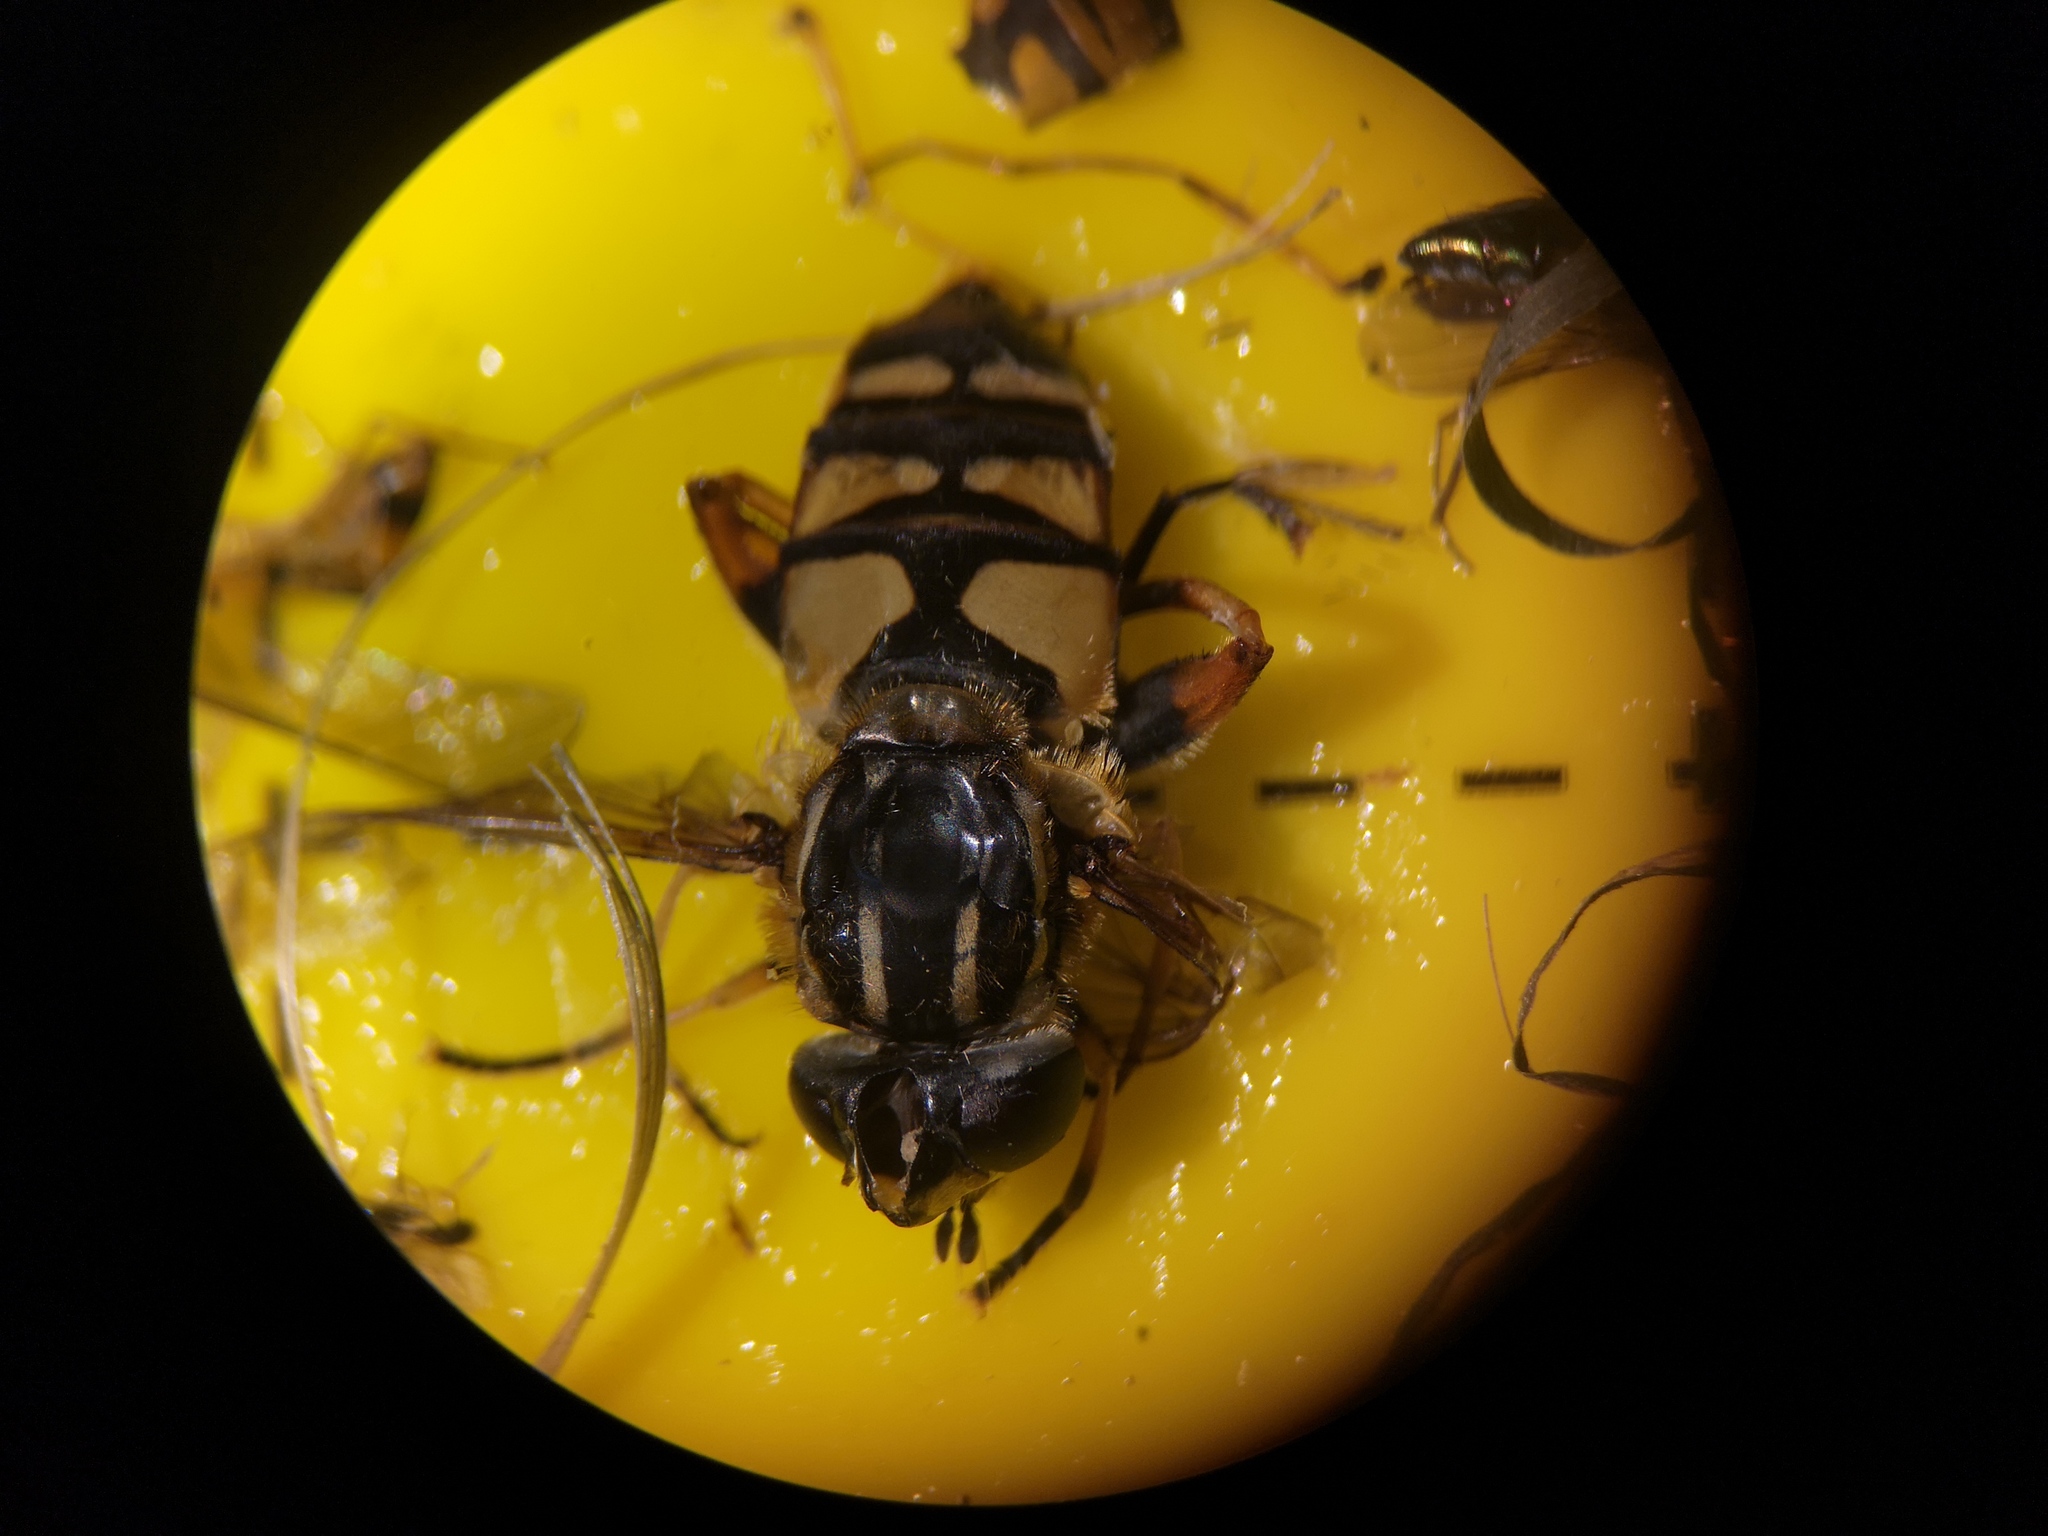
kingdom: Animalia
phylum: Arthropoda
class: Insecta
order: Diptera
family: Syrphidae
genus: Helophilus
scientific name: Helophilus pendulus
